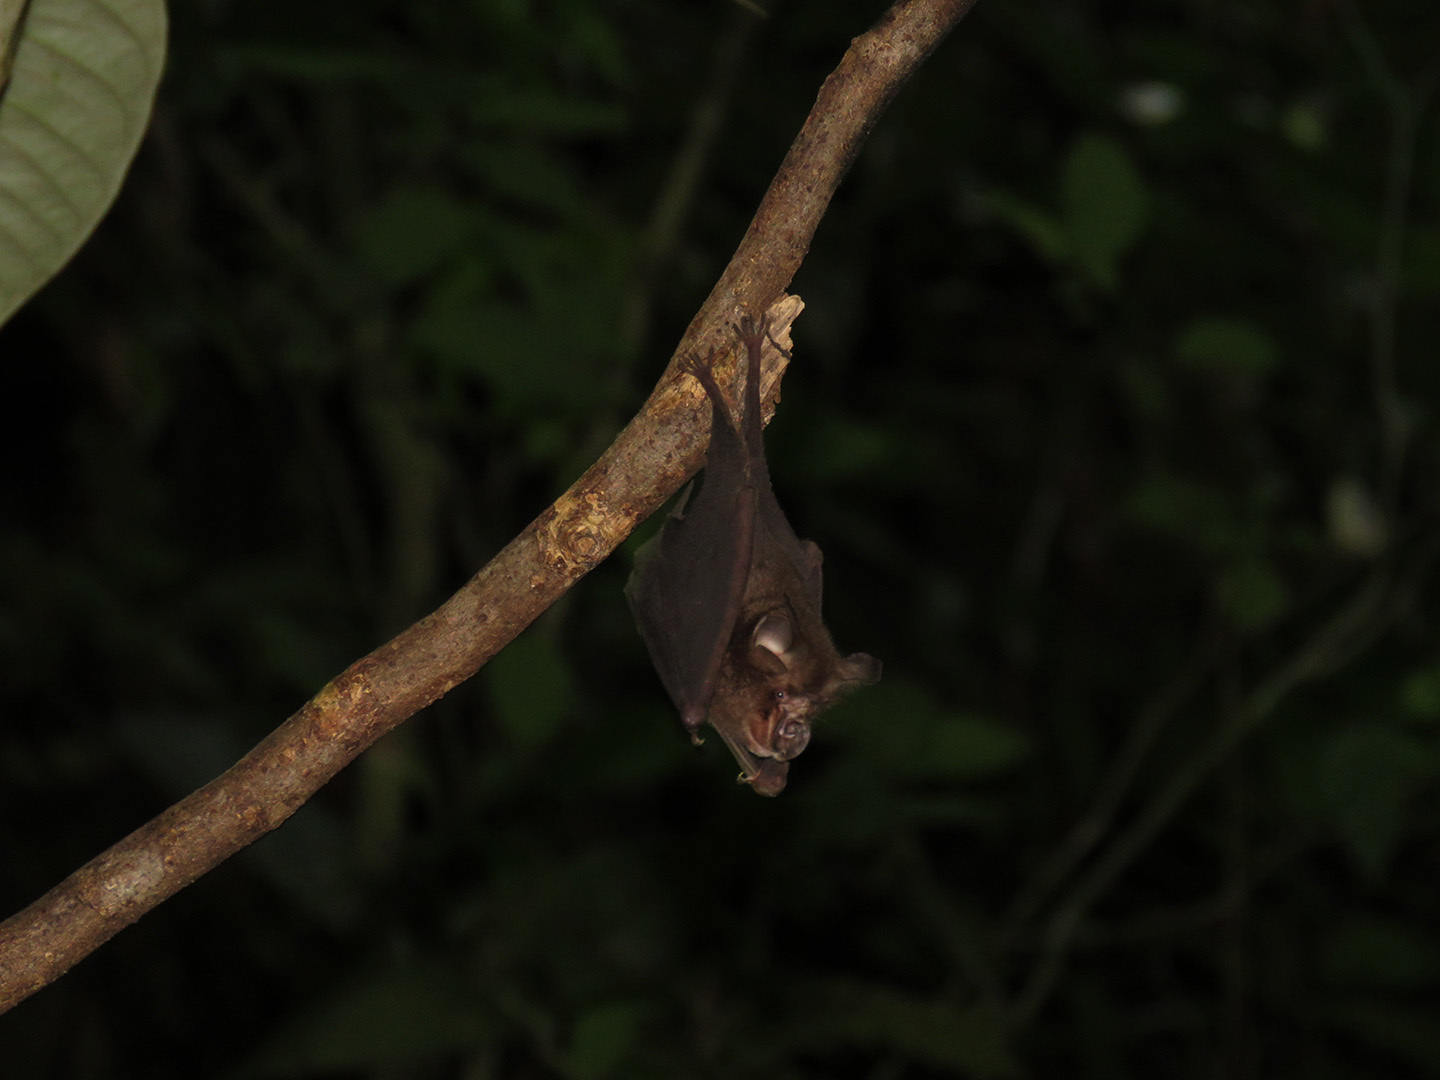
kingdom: Animalia
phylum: Chordata
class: Mammalia
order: Chiroptera
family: Rhinolophidae
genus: Rhinolophus
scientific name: Rhinolophus
